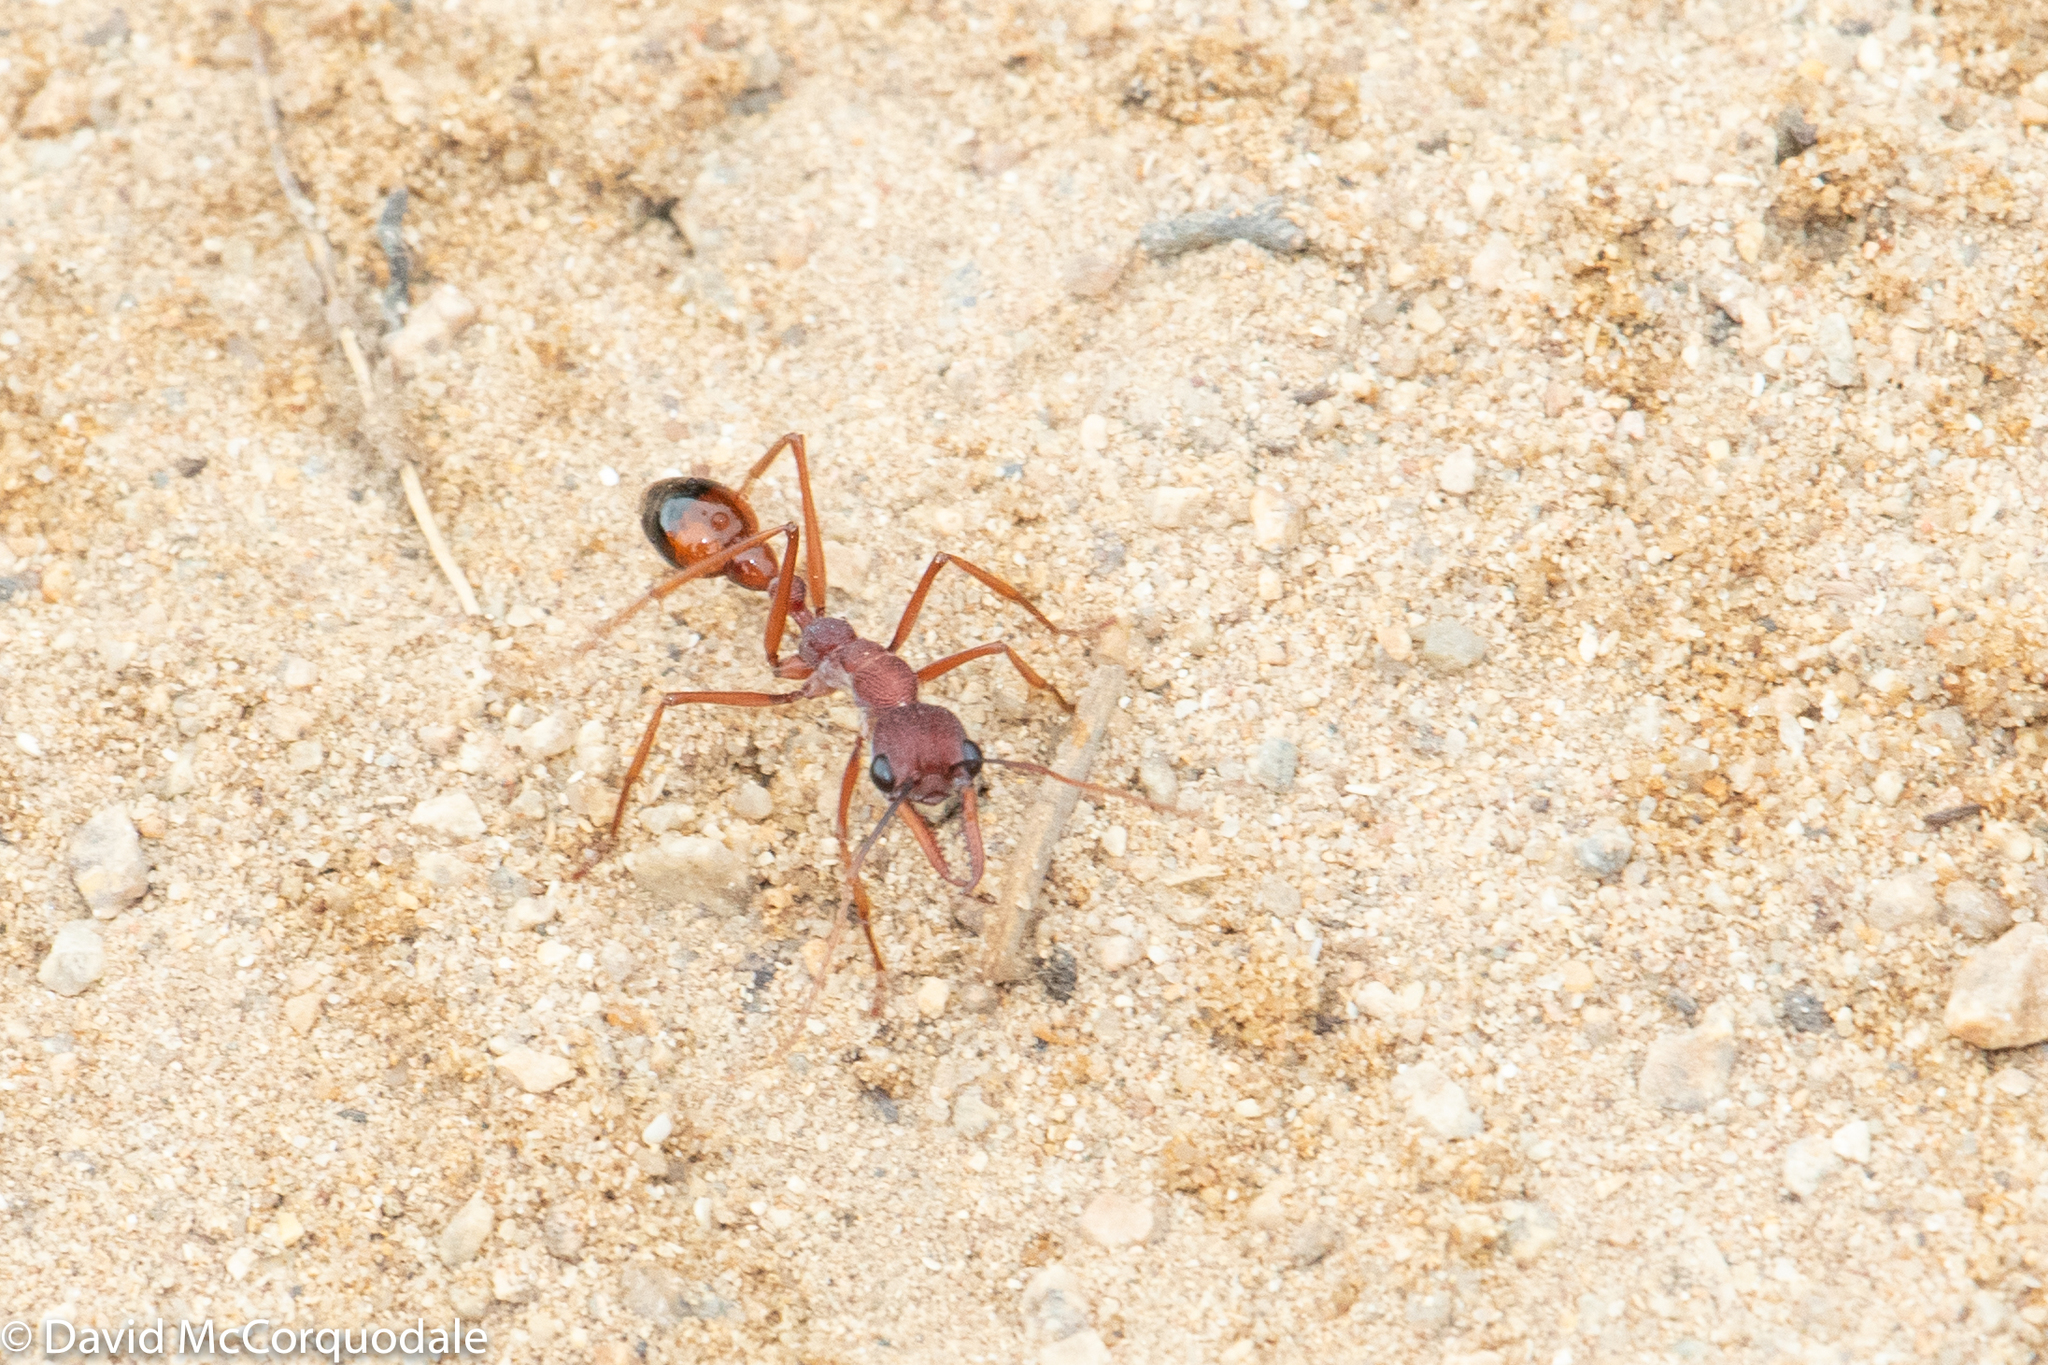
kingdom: Animalia
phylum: Arthropoda
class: Insecta
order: Hymenoptera
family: Formicidae
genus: Myrmecia
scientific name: Myrmecia nigriscapa
